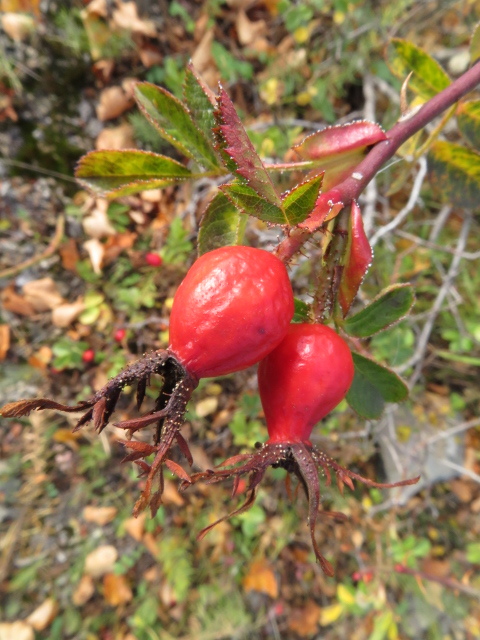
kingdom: Plantae
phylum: Tracheophyta
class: Magnoliopsida
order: Rosales
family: Rosaceae
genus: Rosa
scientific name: Rosa rubiginosa
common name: Sweet-briar
